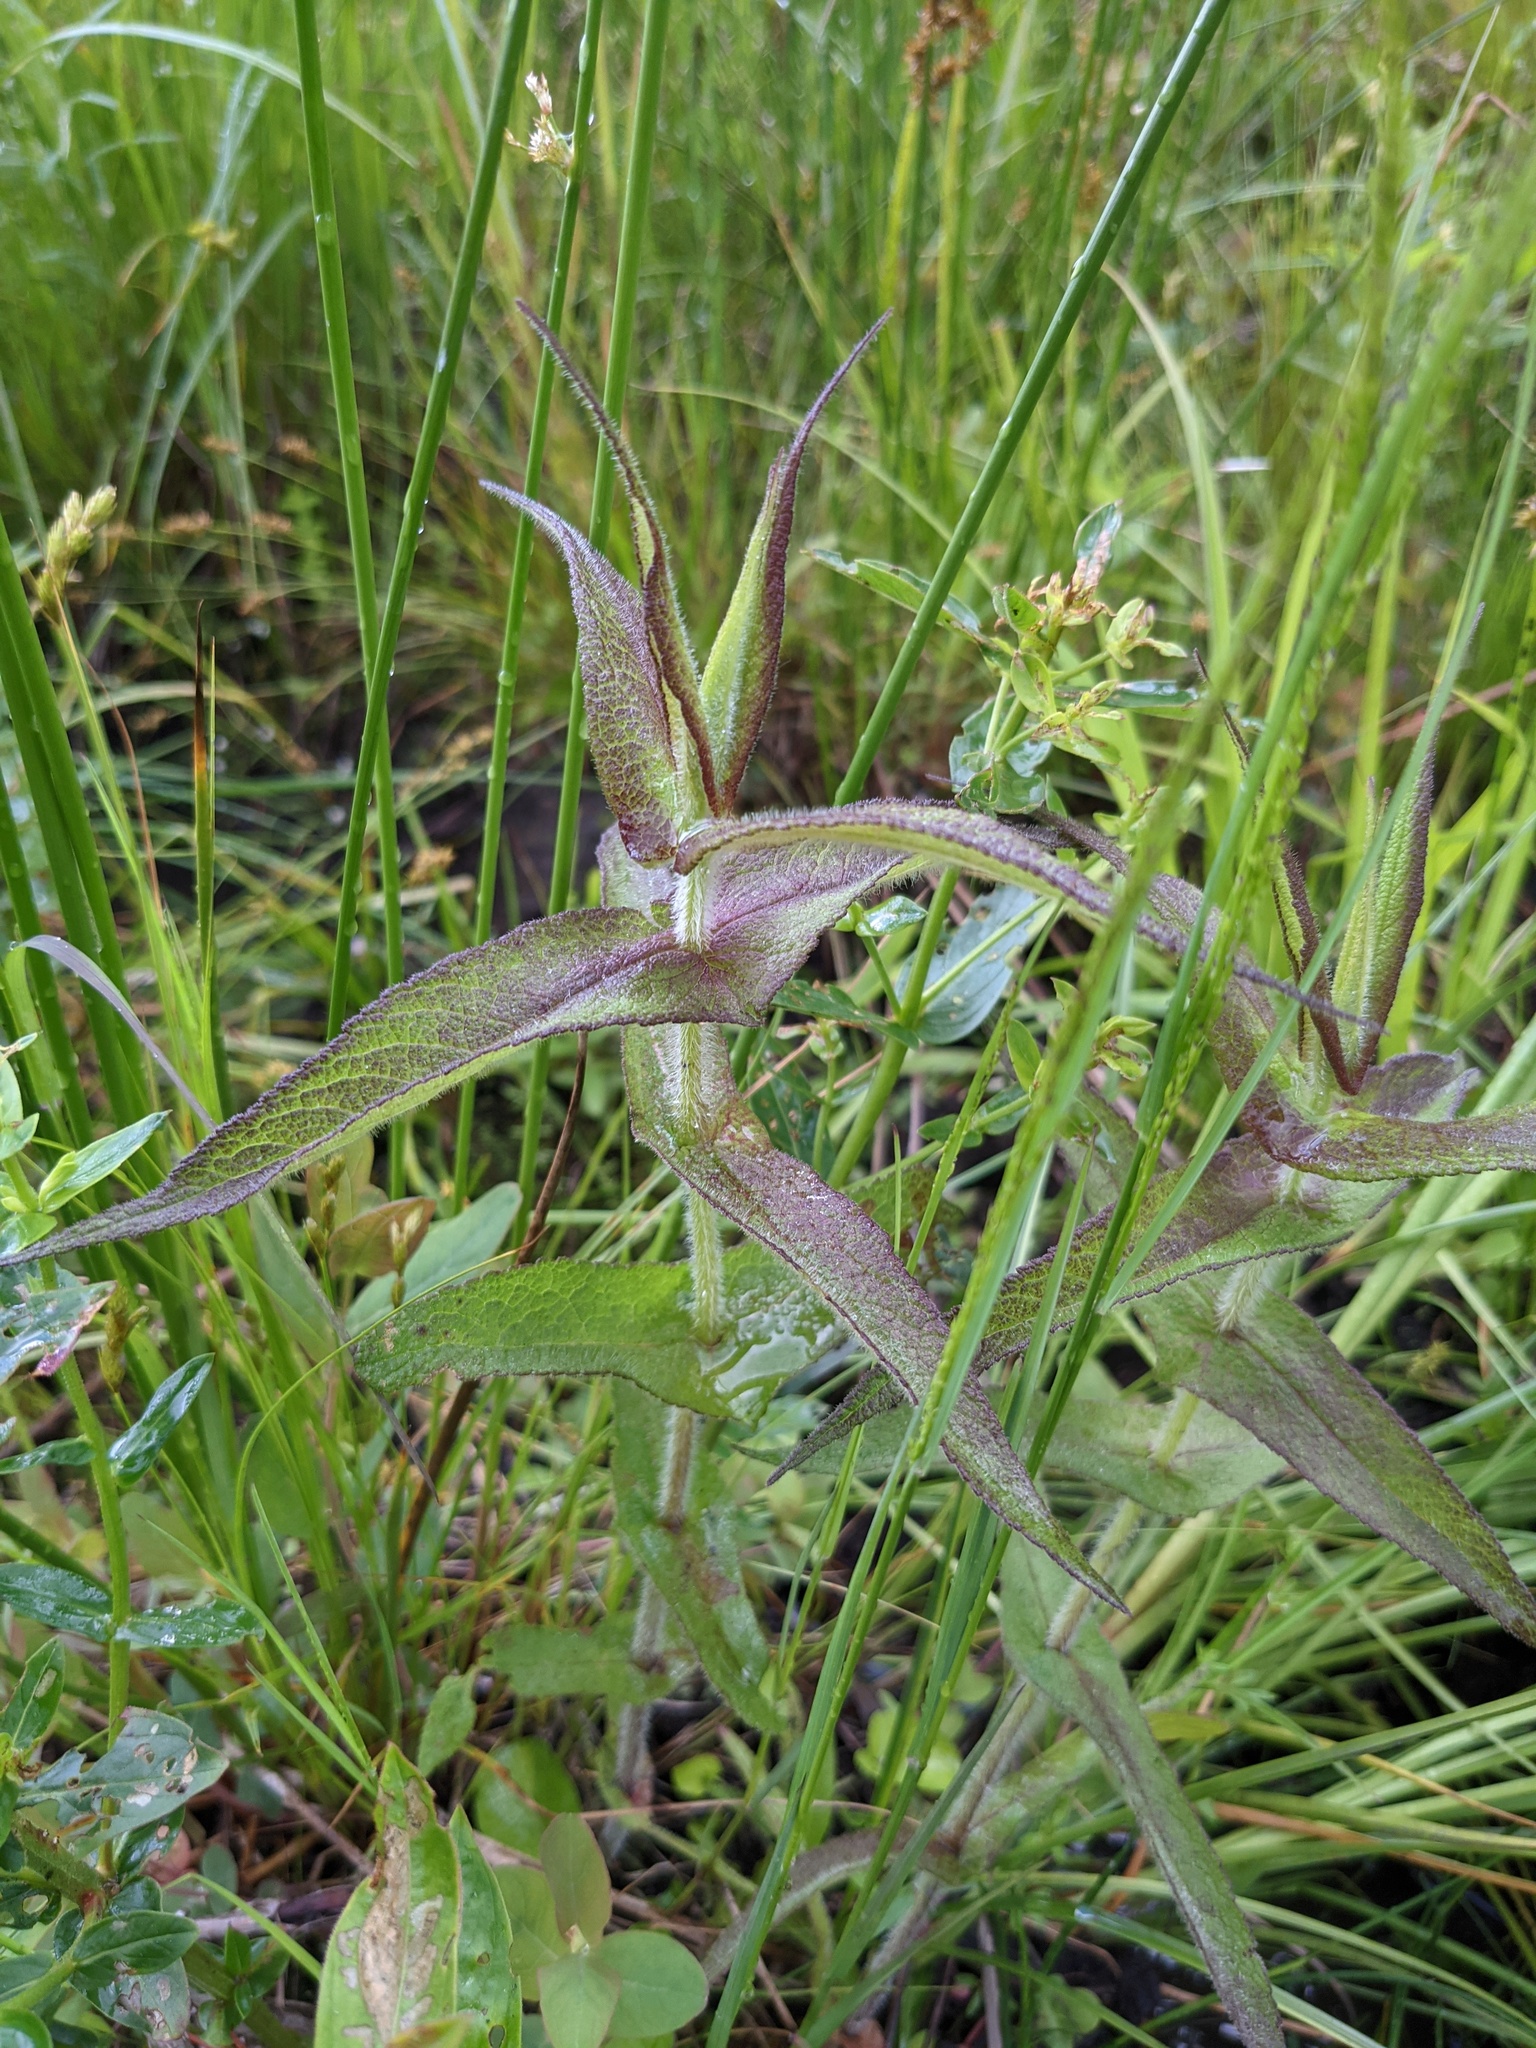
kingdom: Plantae
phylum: Tracheophyta
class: Magnoliopsida
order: Asterales
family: Asteraceae
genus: Eupatorium
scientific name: Eupatorium perfoliatum
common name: Boneset
